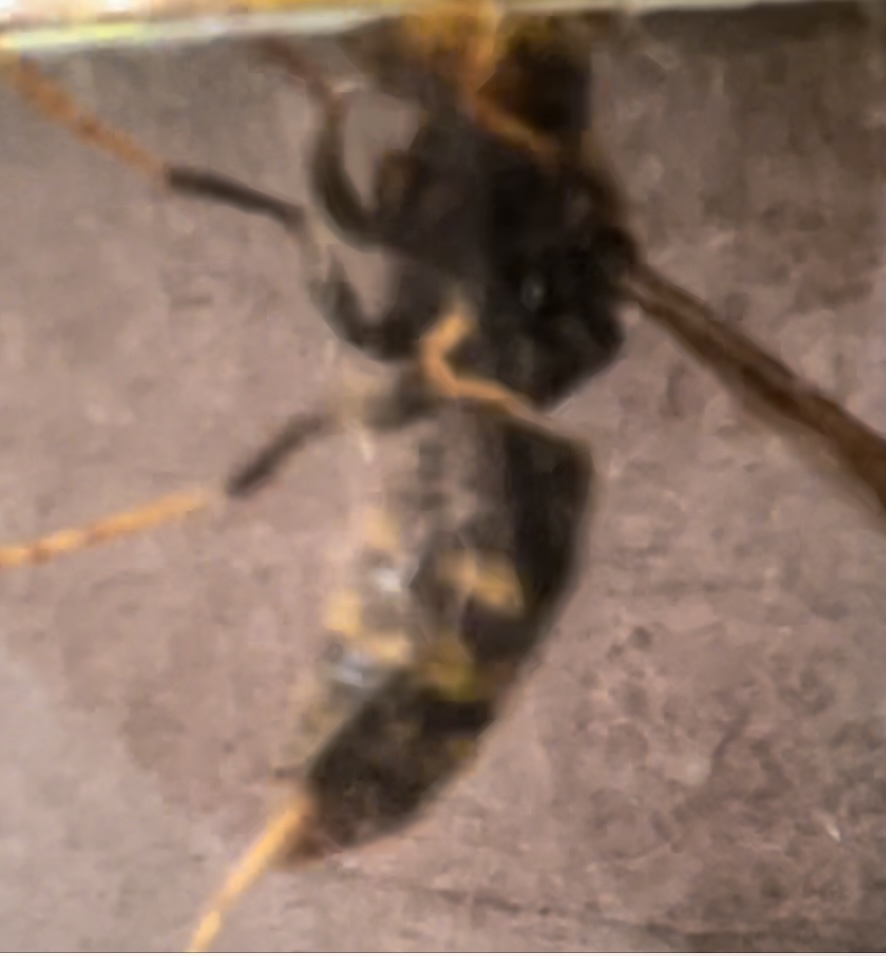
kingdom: Animalia
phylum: Arthropoda
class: Insecta
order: Hymenoptera
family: Vespidae
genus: Vespa
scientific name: Vespa velutina
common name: Asian hornet
